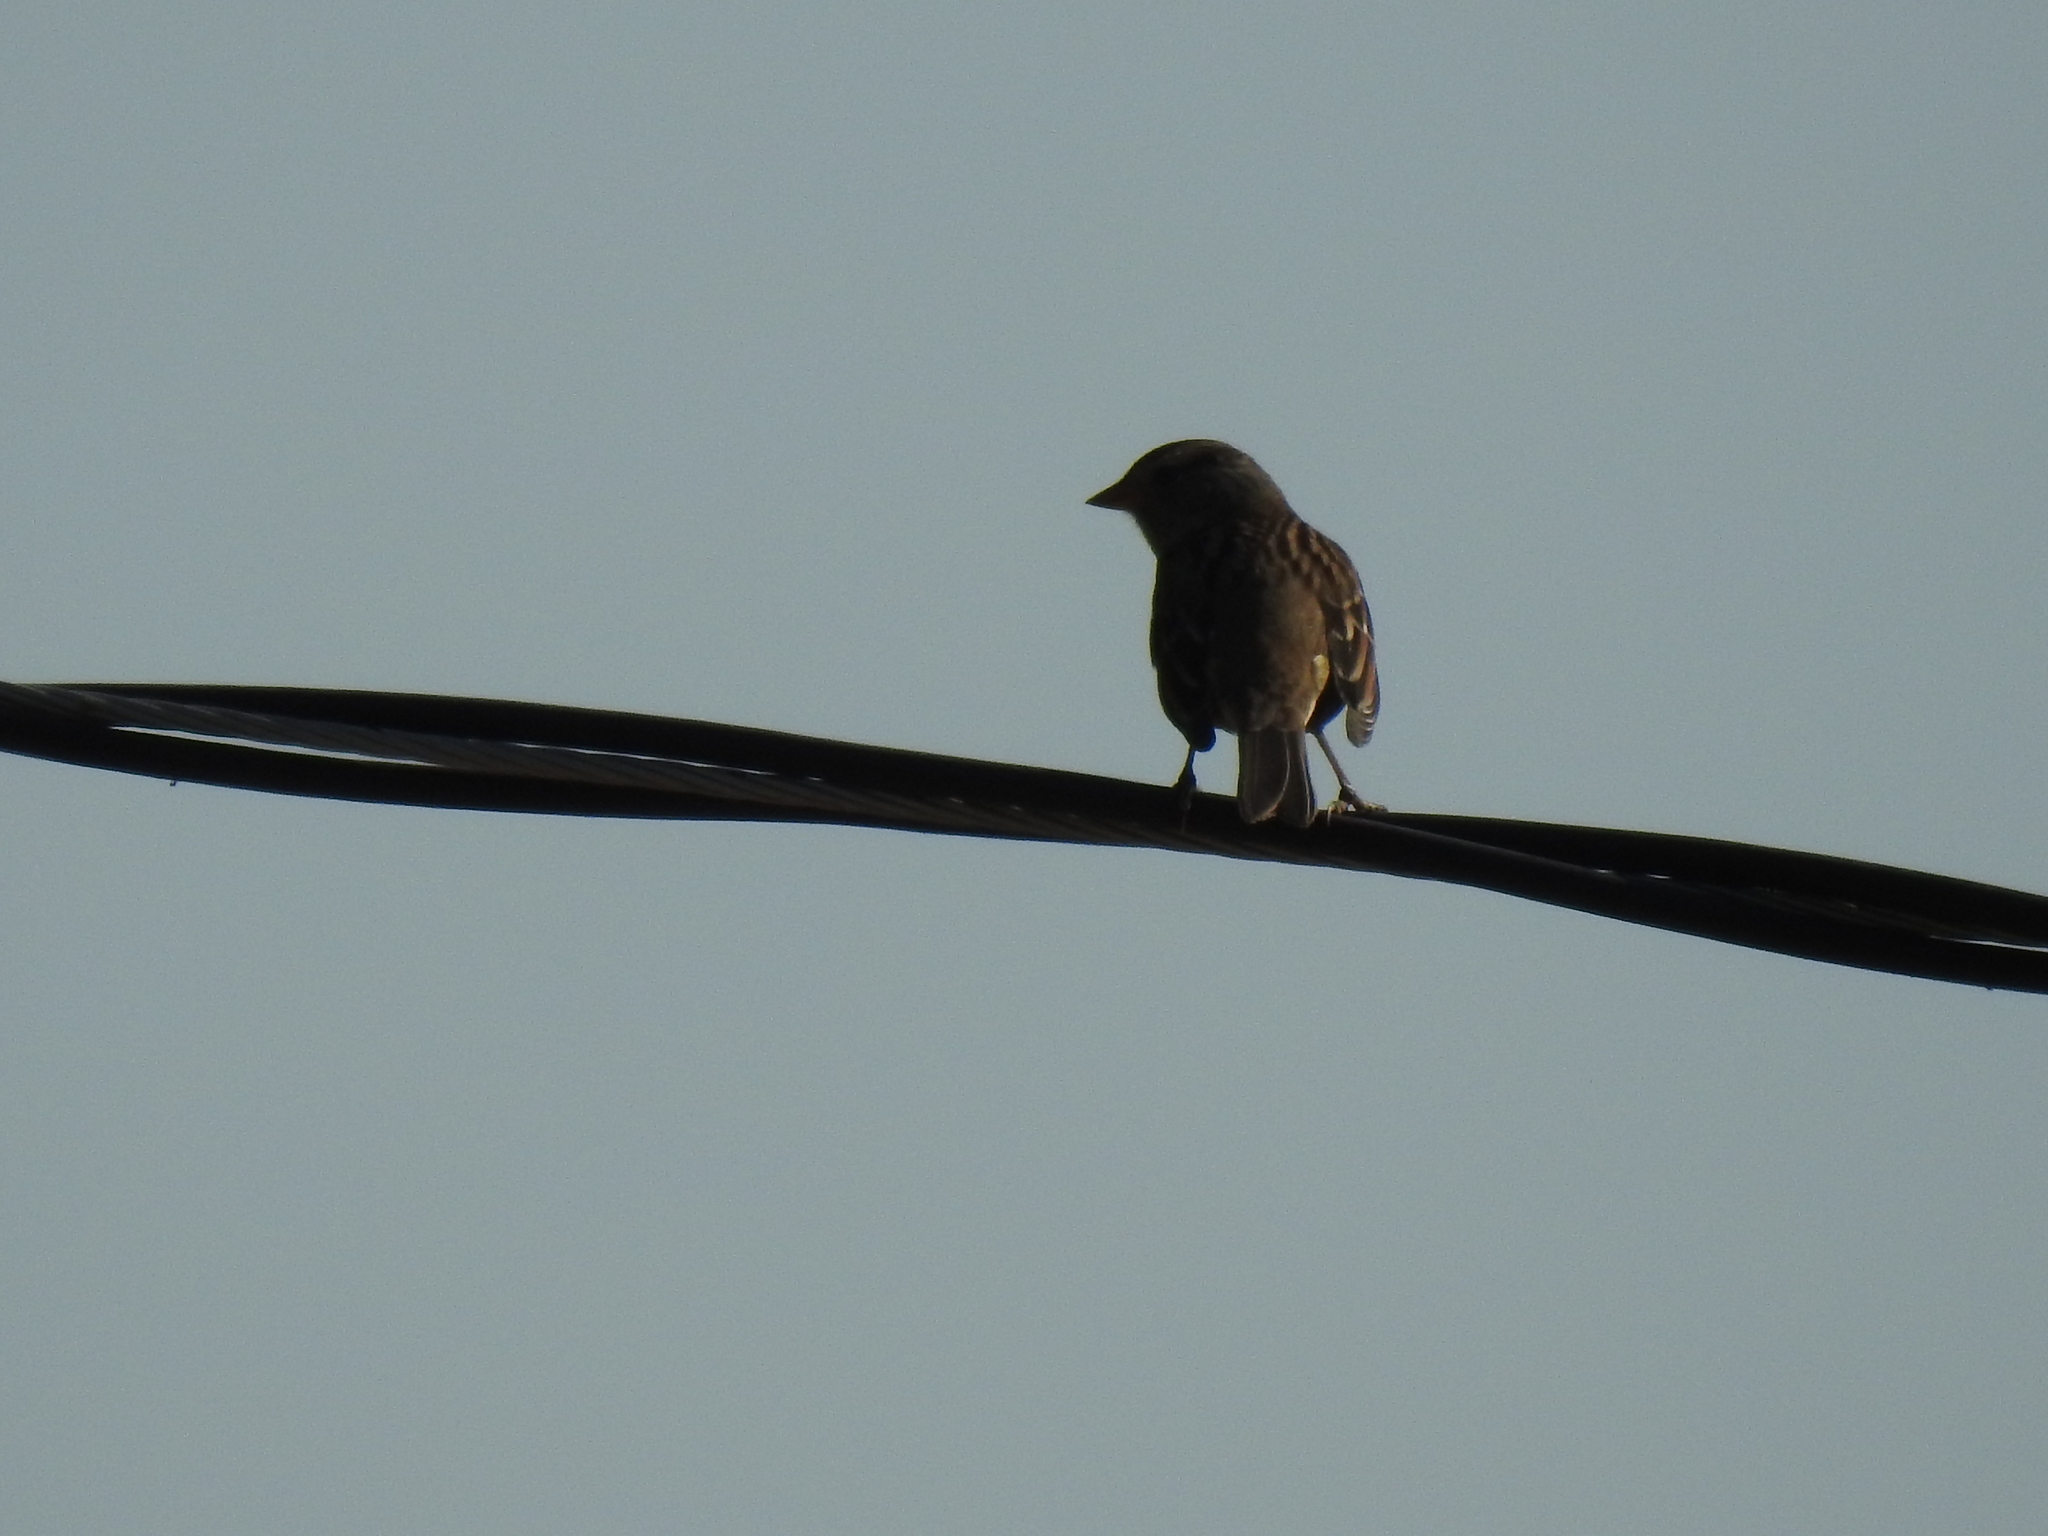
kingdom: Animalia
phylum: Chordata
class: Aves
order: Passeriformes
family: Passerellidae
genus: Zonotrichia
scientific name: Zonotrichia leucophrys
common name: White-crowned sparrow
